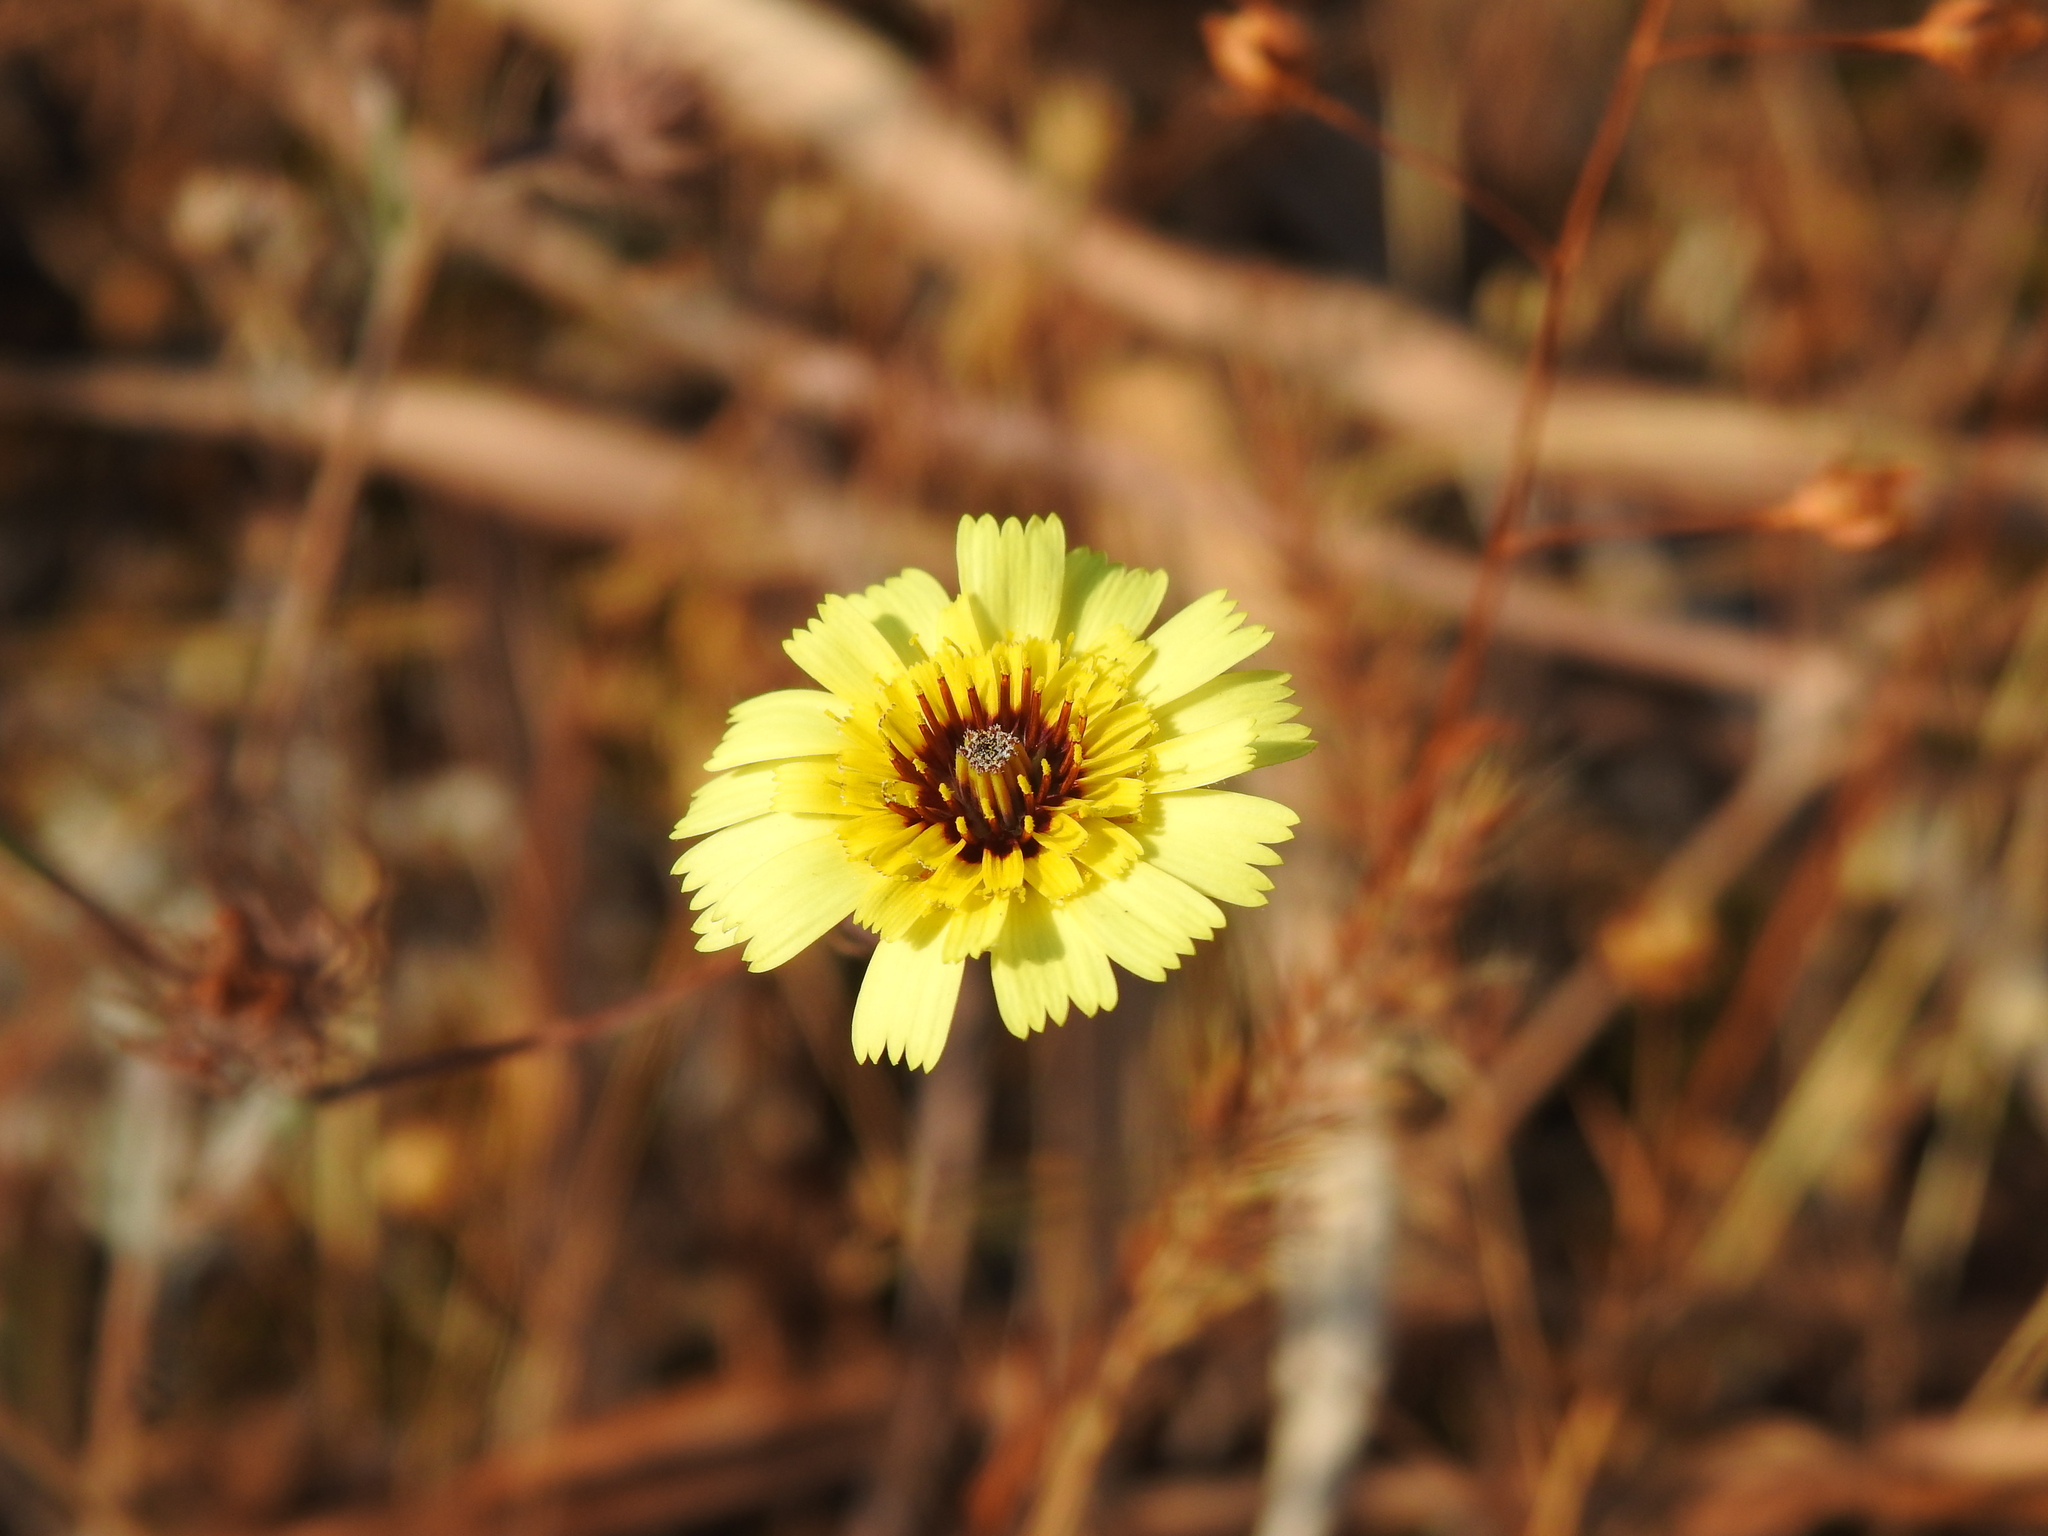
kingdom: Plantae
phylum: Tracheophyta
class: Magnoliopsida
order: Asterales
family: Asteraceae
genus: Tolpis
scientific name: Tolpis barbata
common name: Yellow hawkweed
